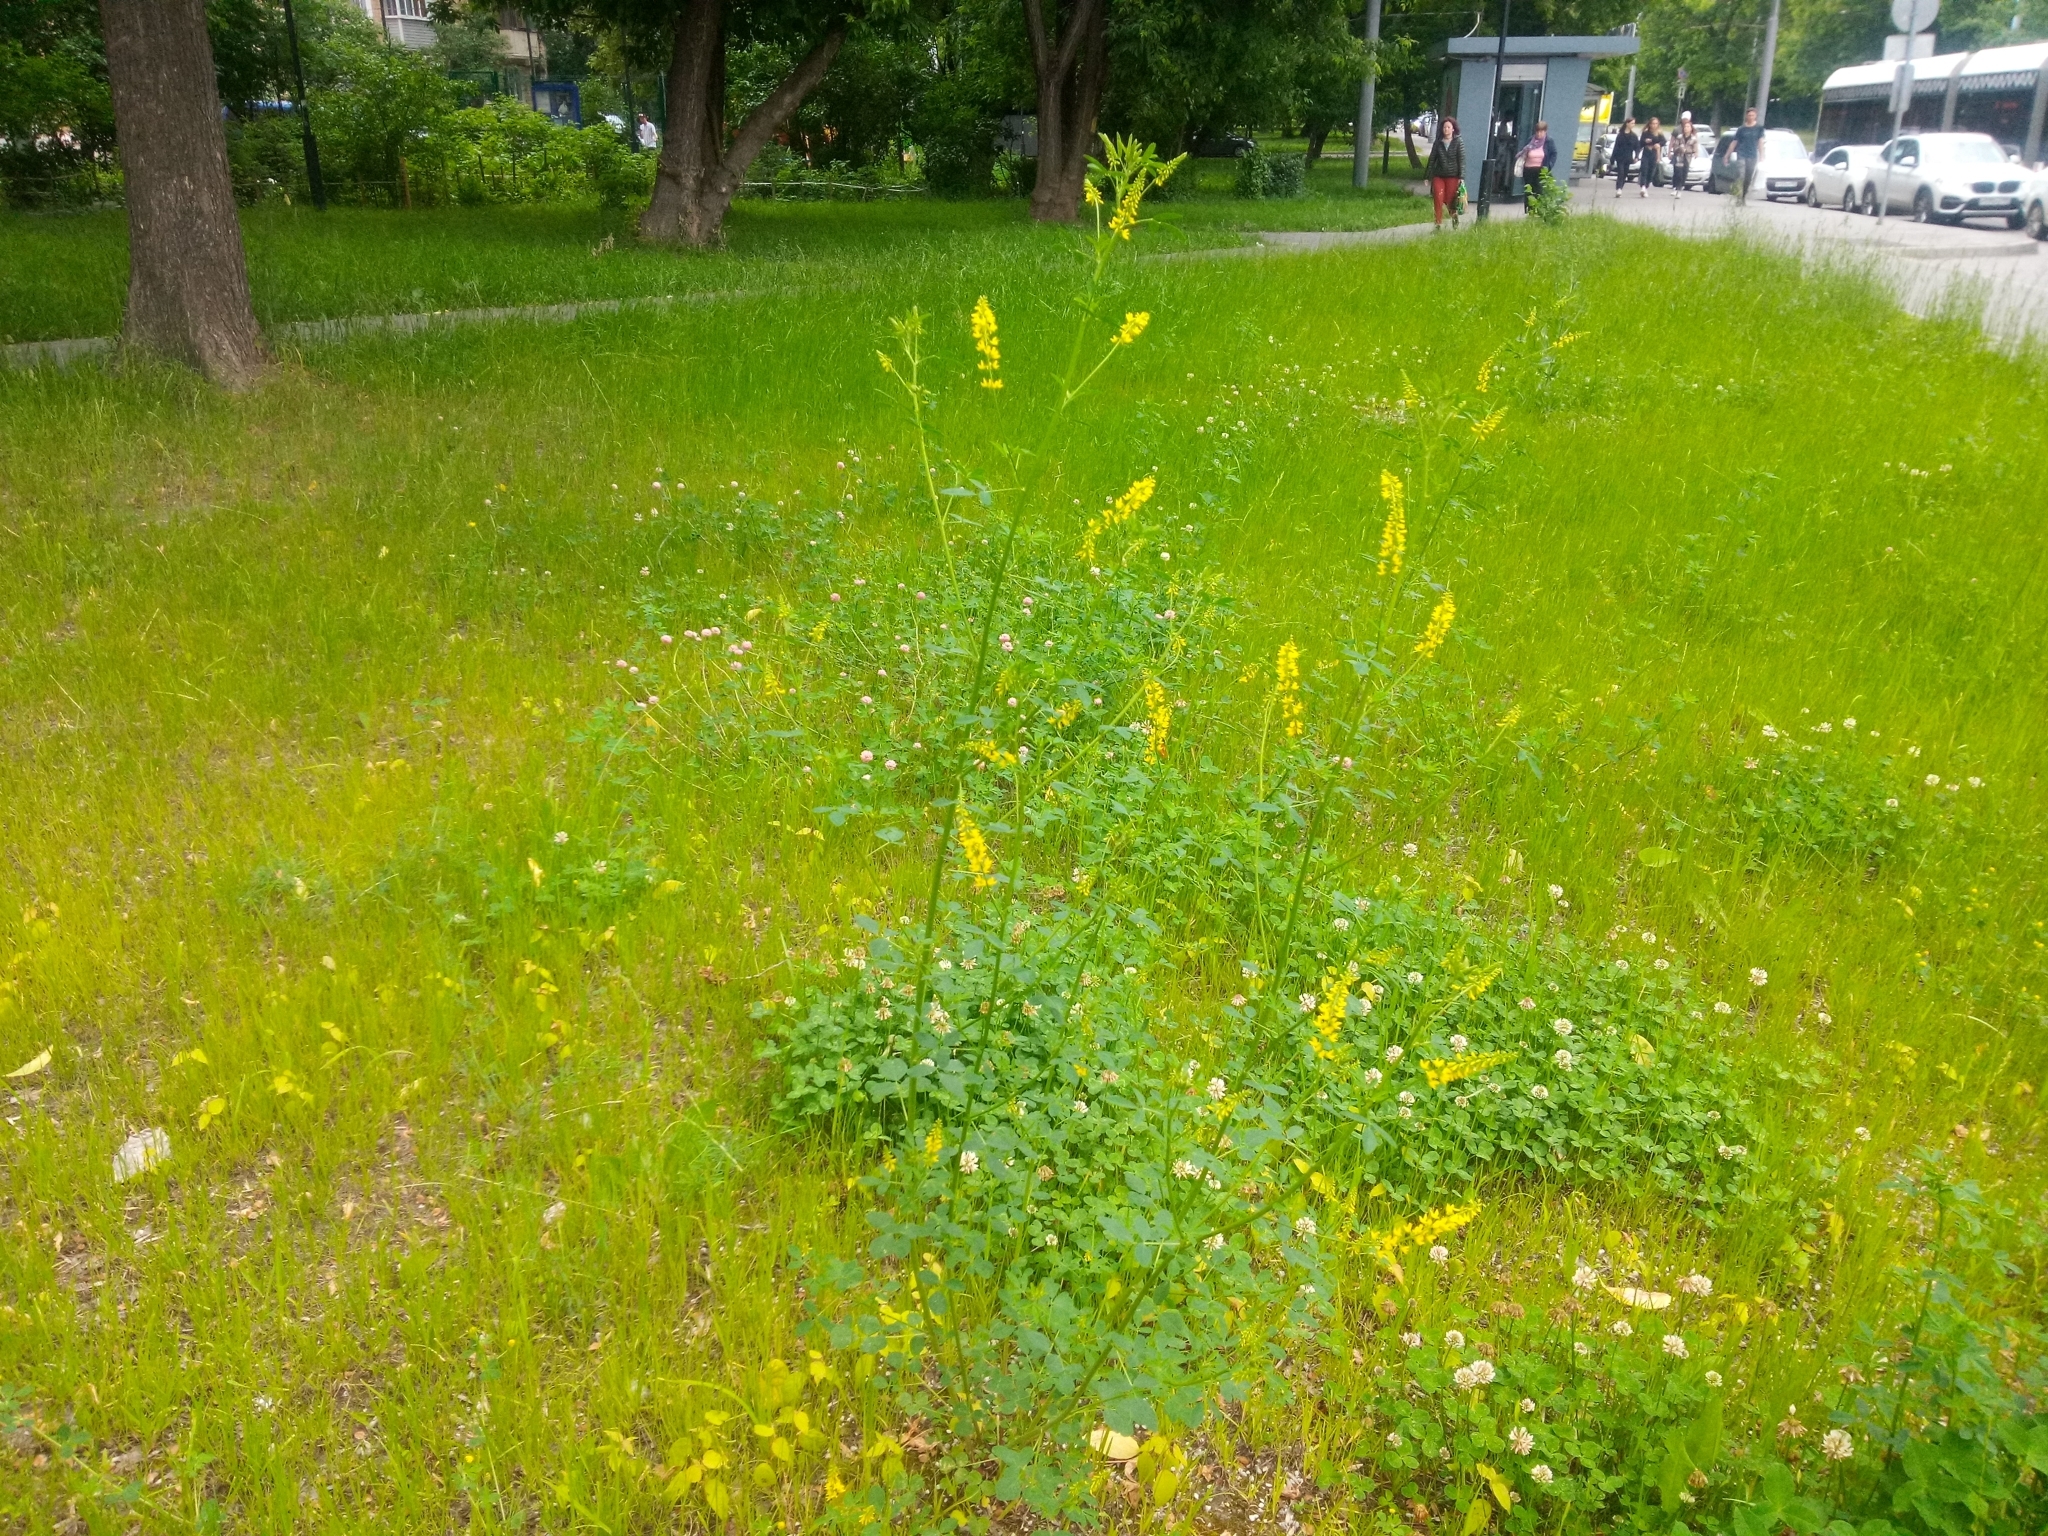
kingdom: Plantae
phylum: Tracheophyta
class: Magnoliopsida
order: Fabales
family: Fabaceae
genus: Melilotus
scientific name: Melilotus officinalis
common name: Sweetclover
